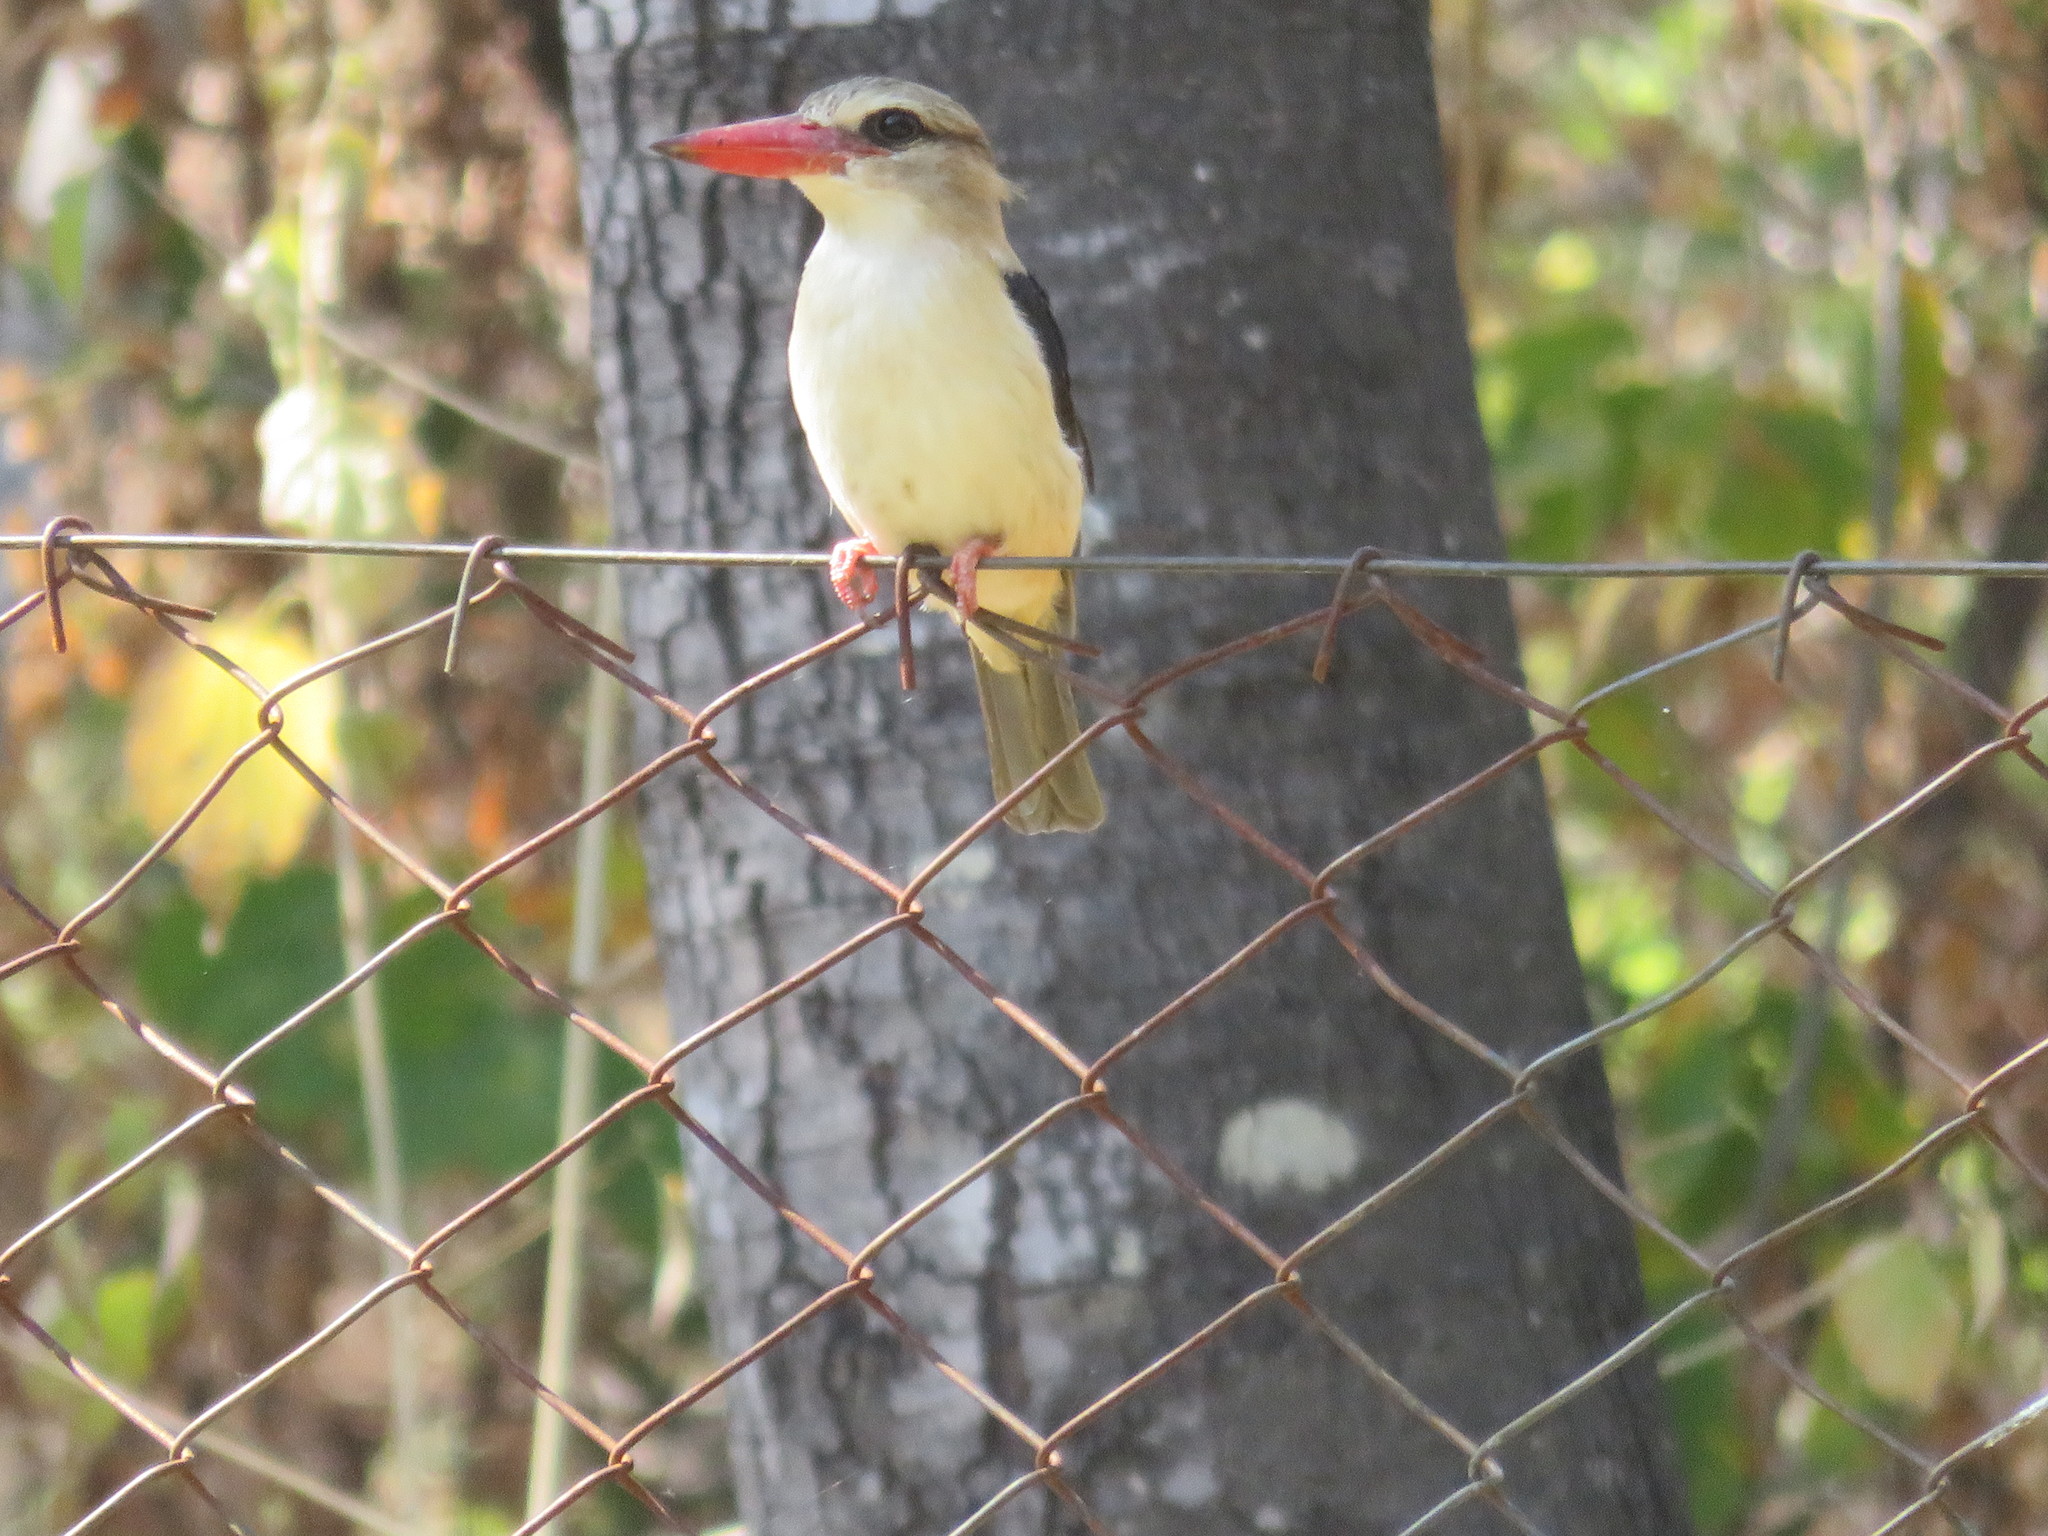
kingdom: Animalia
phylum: Chordata
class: Aves
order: Coraciiformes
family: Alcedinidae
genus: Halcyon
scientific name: Halcyon albiventris
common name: Brown-hooded kingfisher
